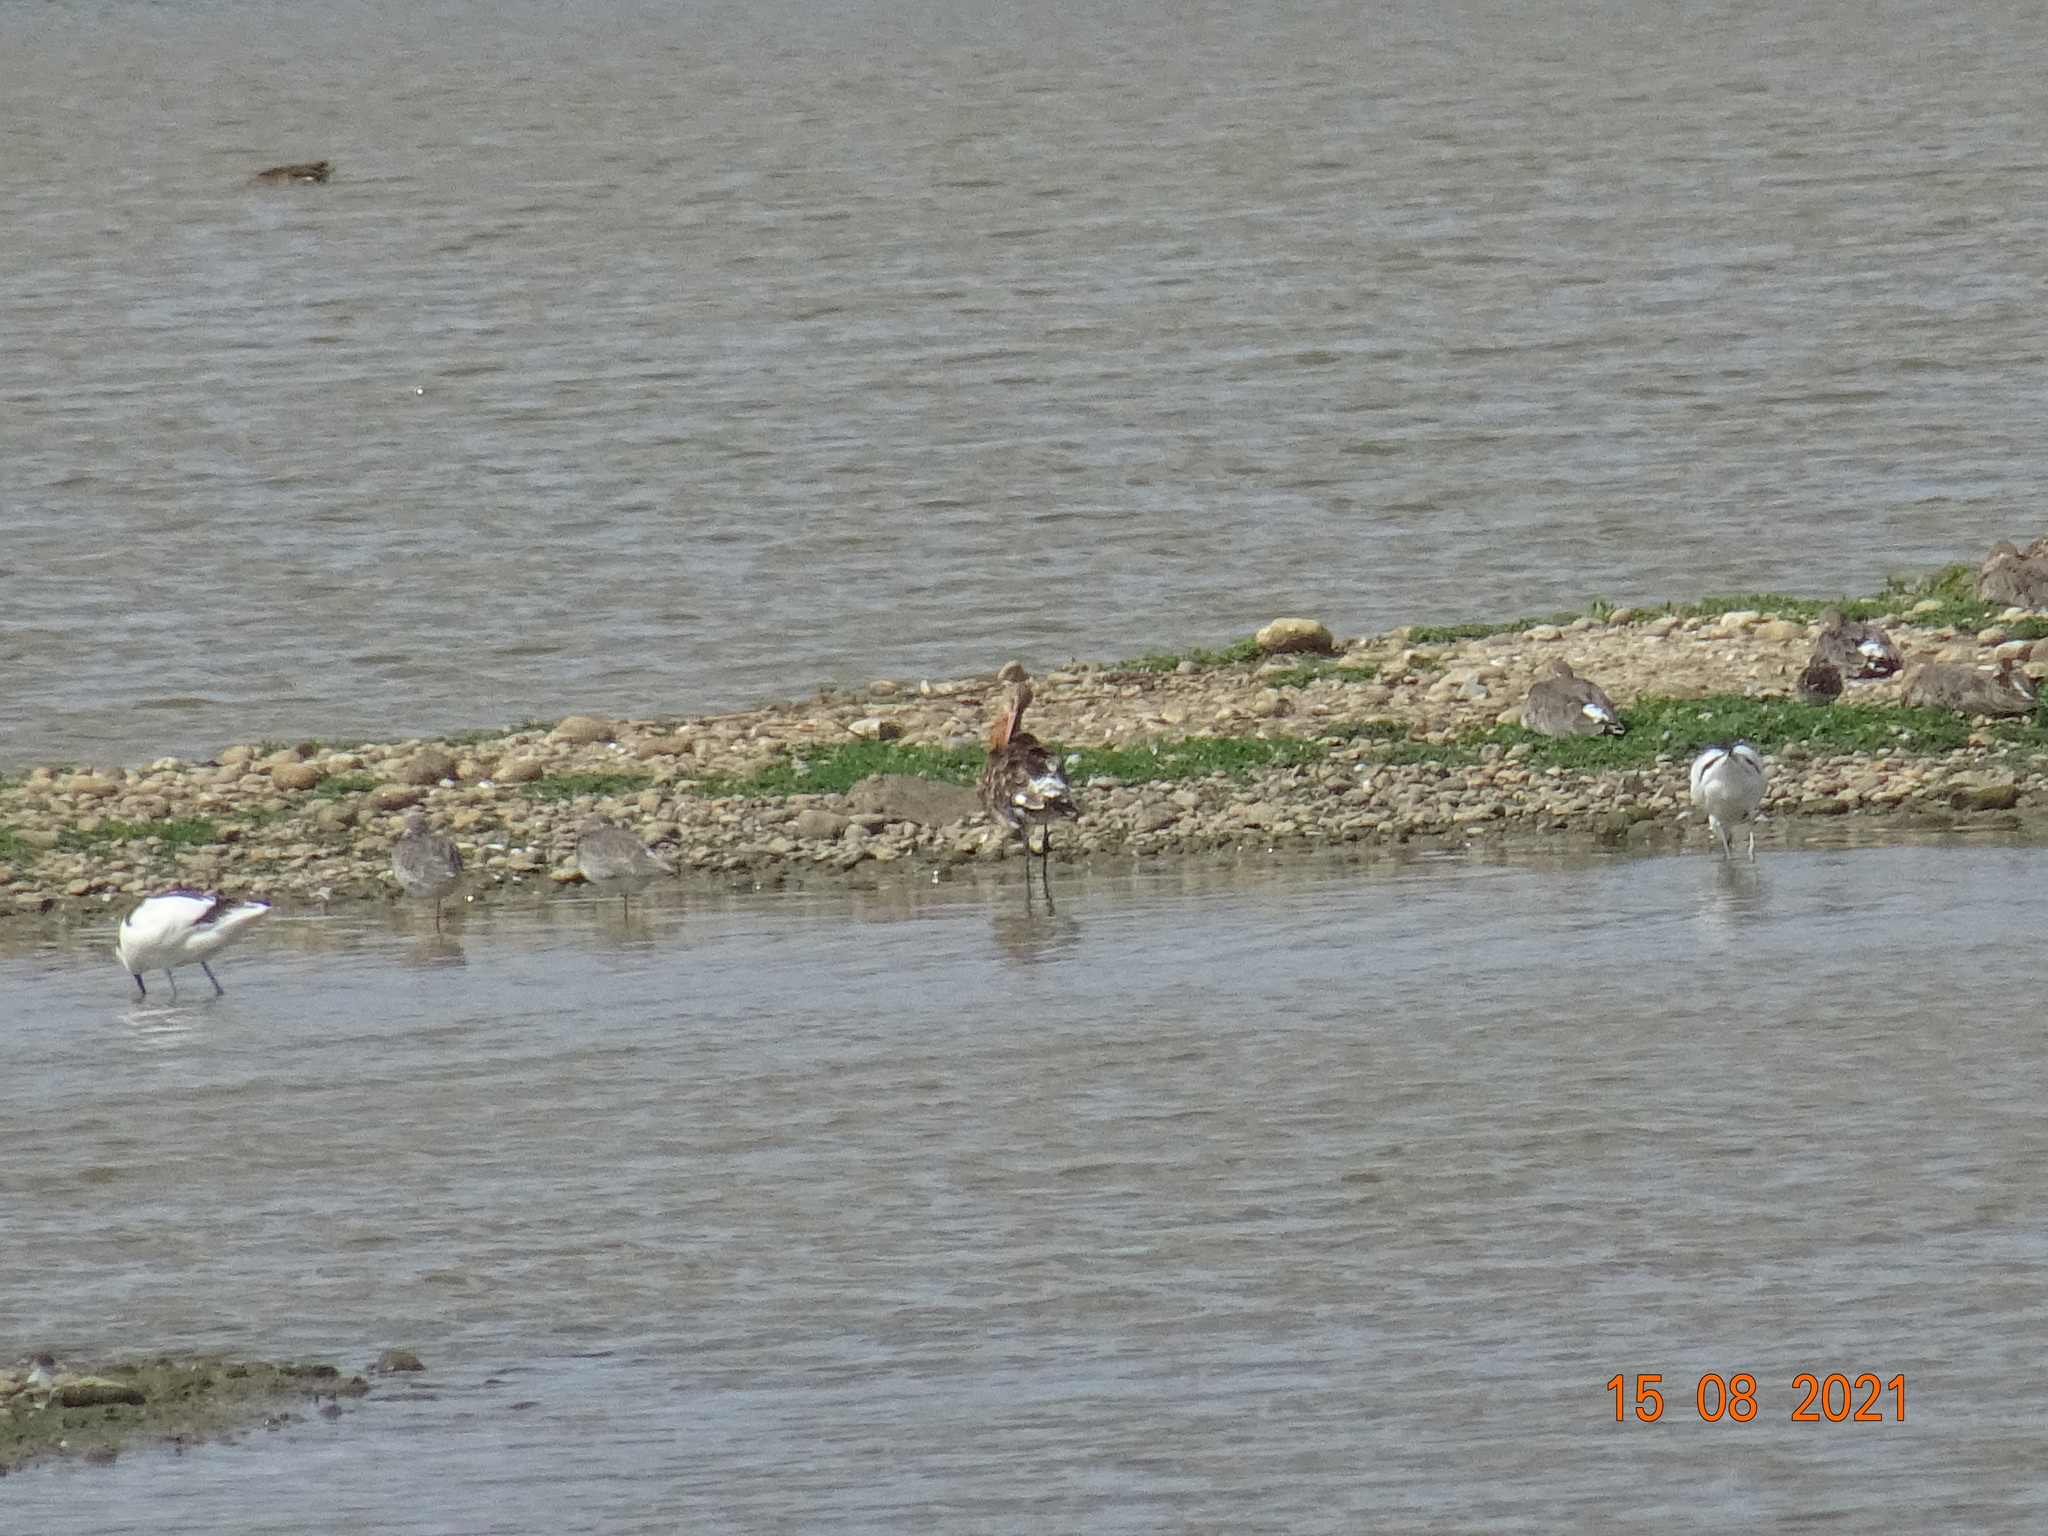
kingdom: Animalia
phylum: Chordata
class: Aves
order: Charadriiformes
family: Scolopacidae
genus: Limosa
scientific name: Limosa limosa
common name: Black-tailed godwit
